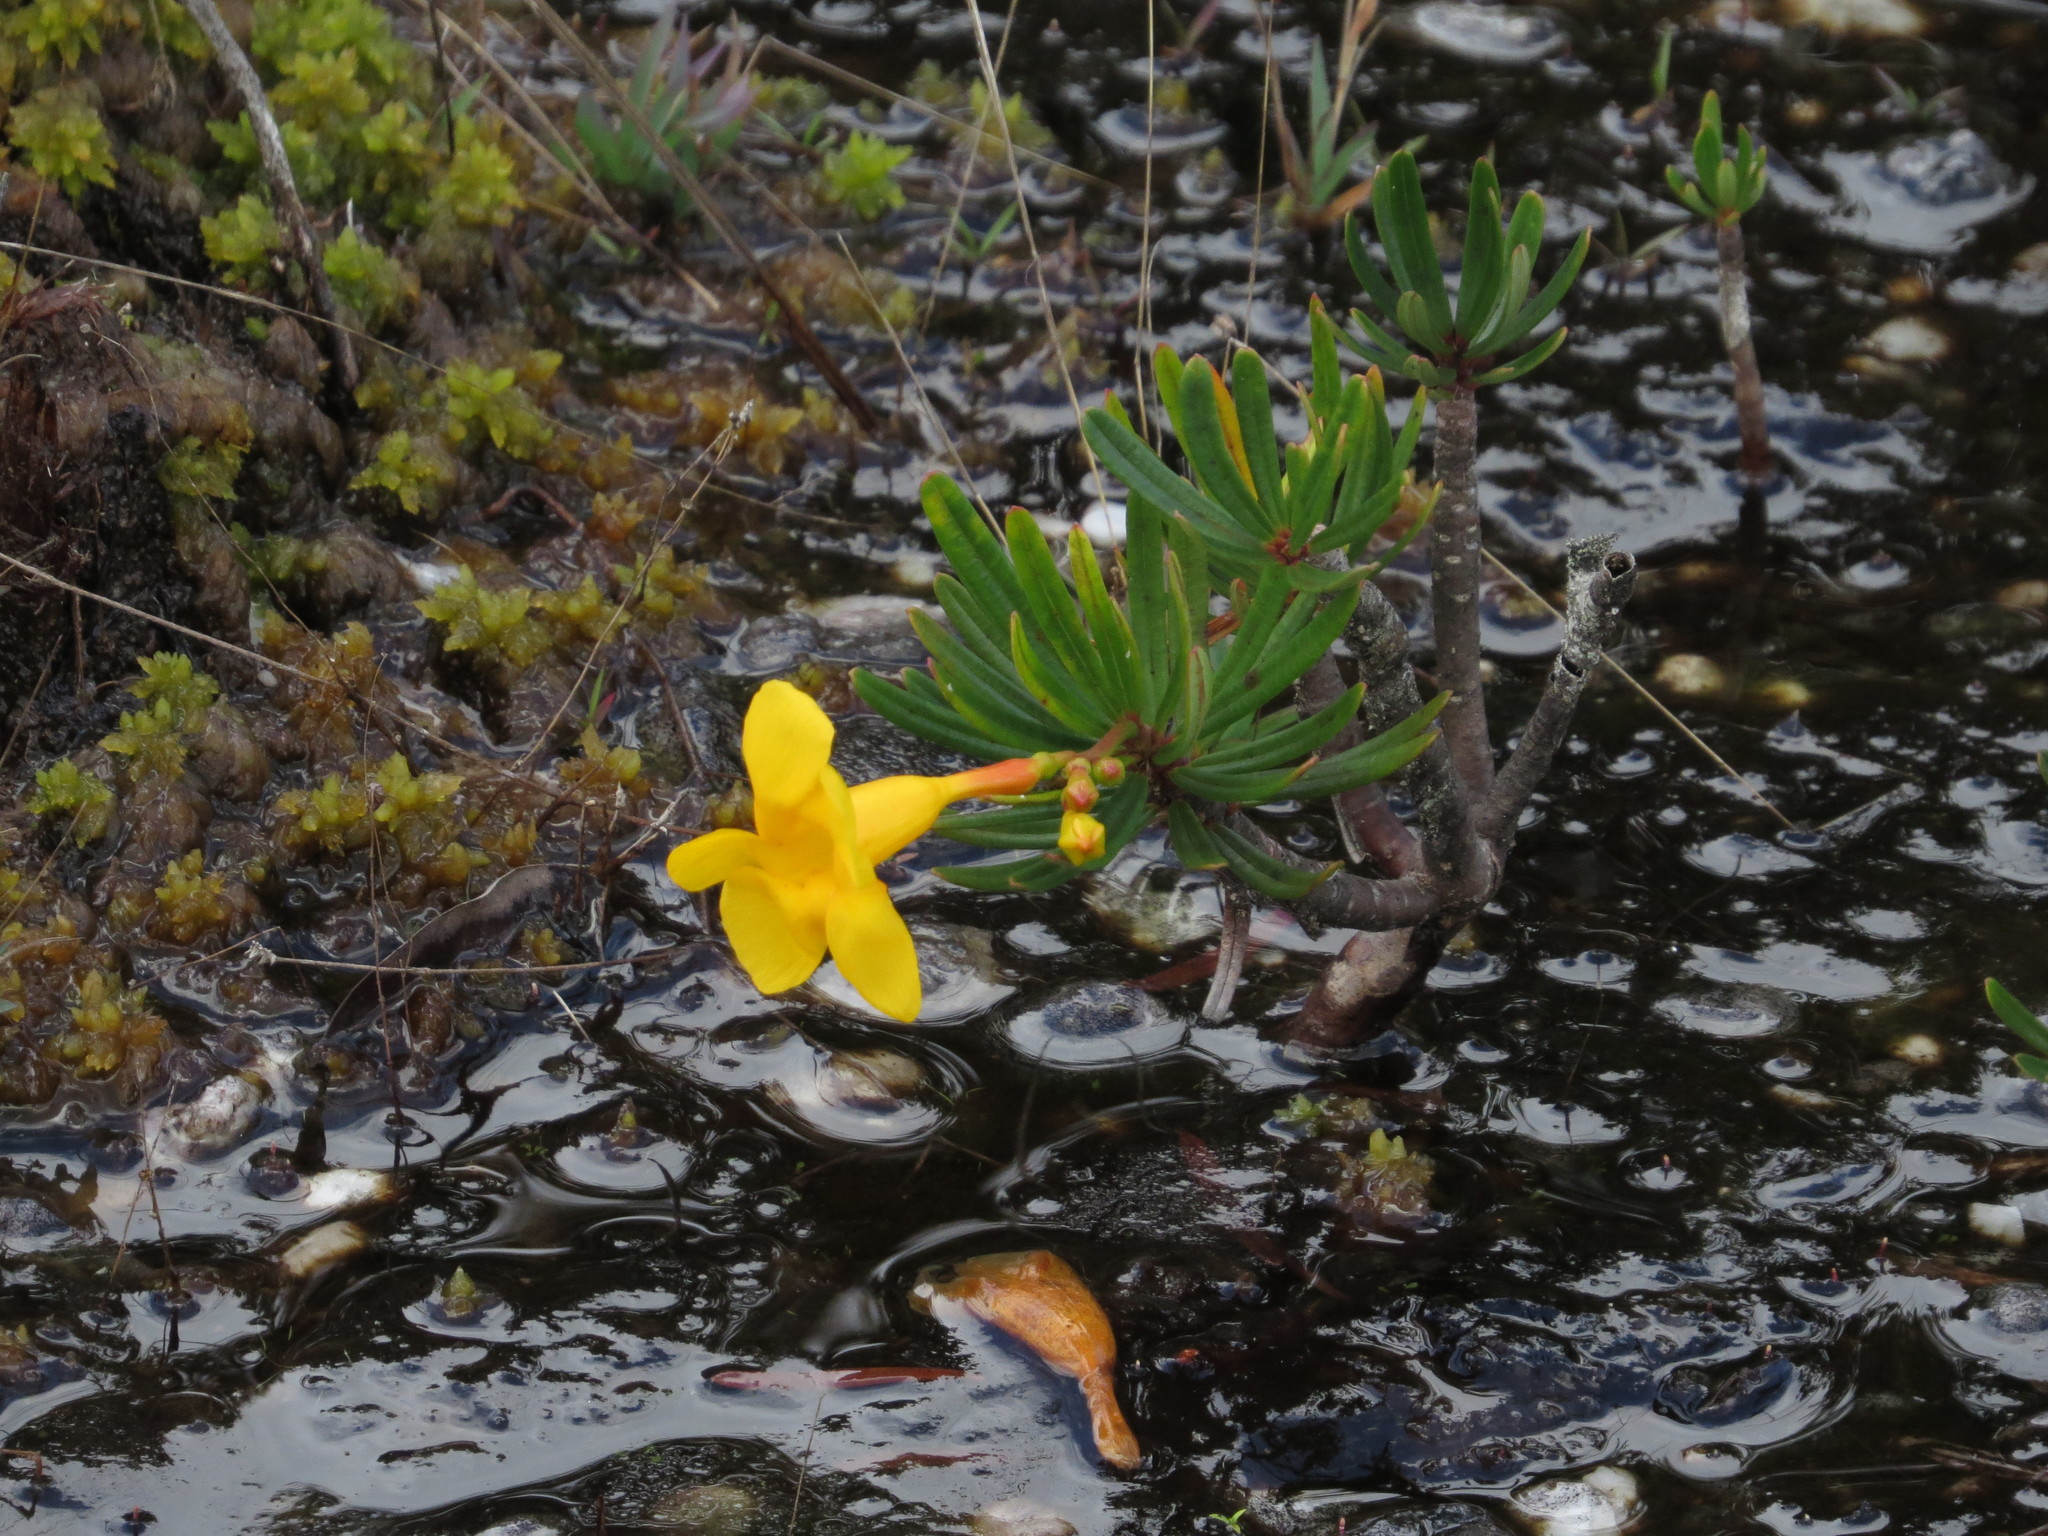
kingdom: Plantae
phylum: Tracheophyta
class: Magnoliopsida
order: Gentianales
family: Apocynaceae
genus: Mandevilla
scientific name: Mandevilla benthamii
